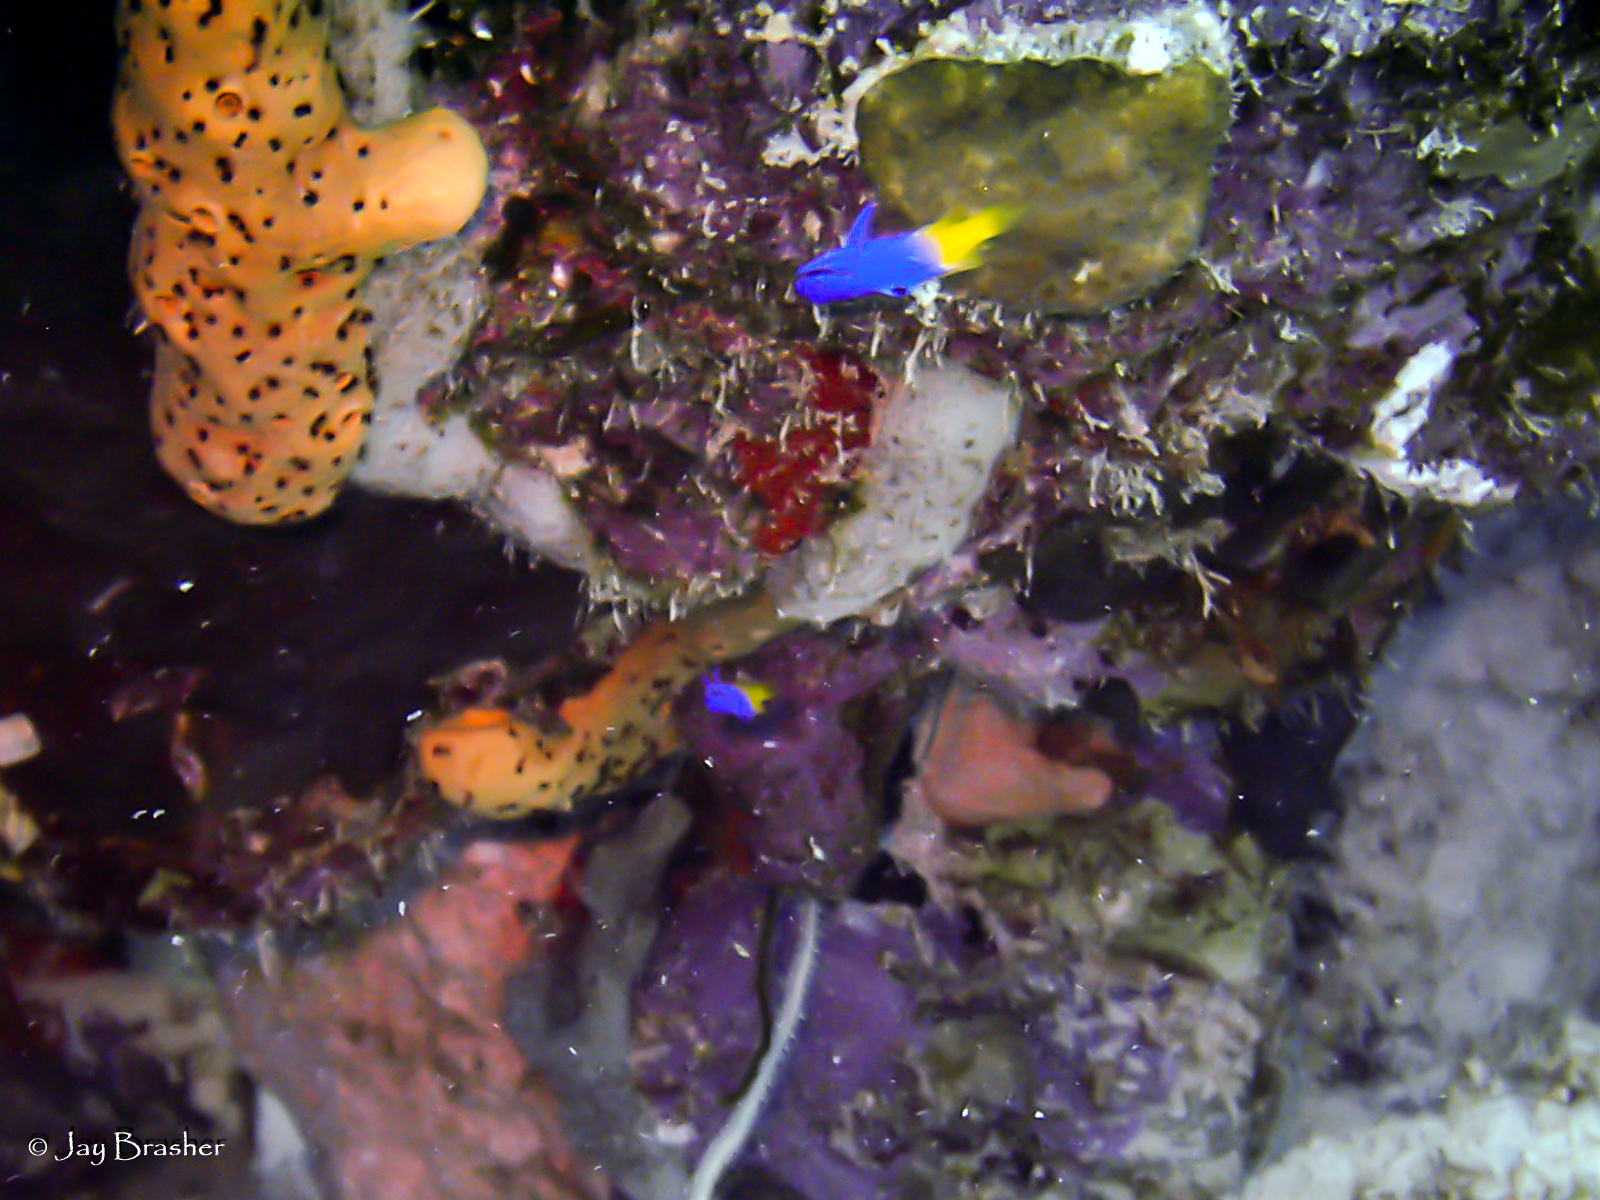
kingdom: Animalia
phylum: Porifera
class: Demospongiae
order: Agelasida
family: Agelasidae
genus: Agelas
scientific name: Agelas sceptrum
